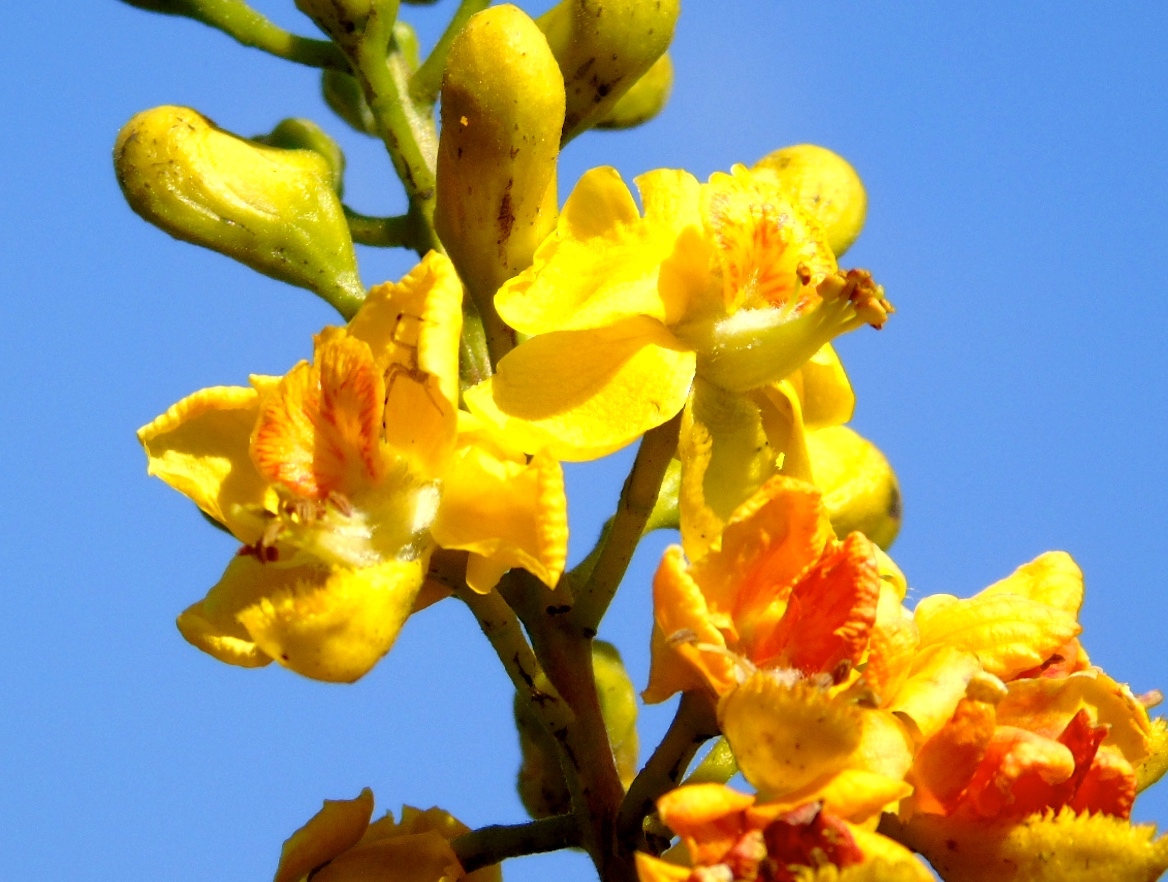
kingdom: Plantae
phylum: Tracheophyta
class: Magnoliopsida
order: Fabales
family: Fabaceae
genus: Tara
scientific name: Tara cacalaco
